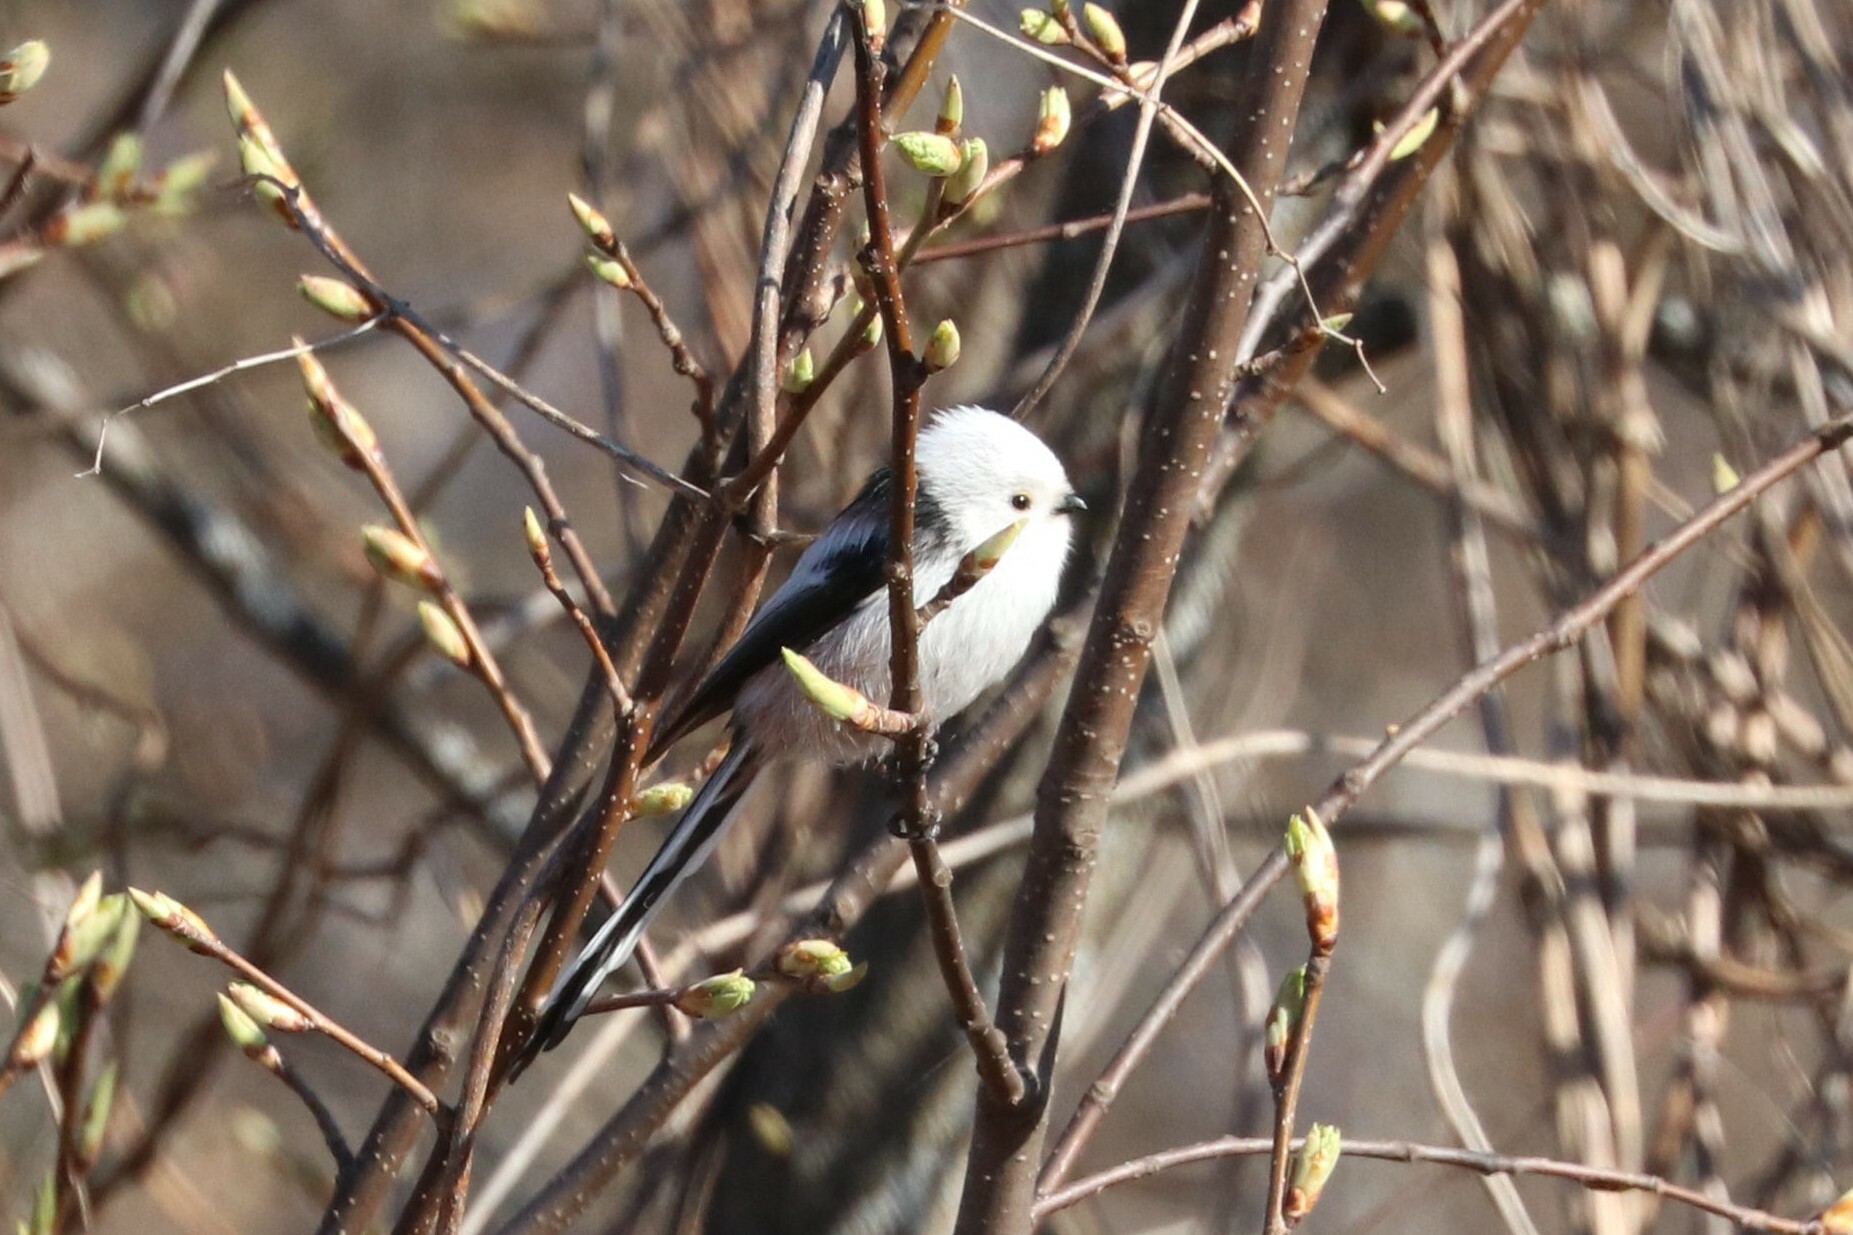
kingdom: Animalia
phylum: Chordata
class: Aves
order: Passeriformes
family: Aegithalidae
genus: Aegithalos
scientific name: Aegithalos caudatus
